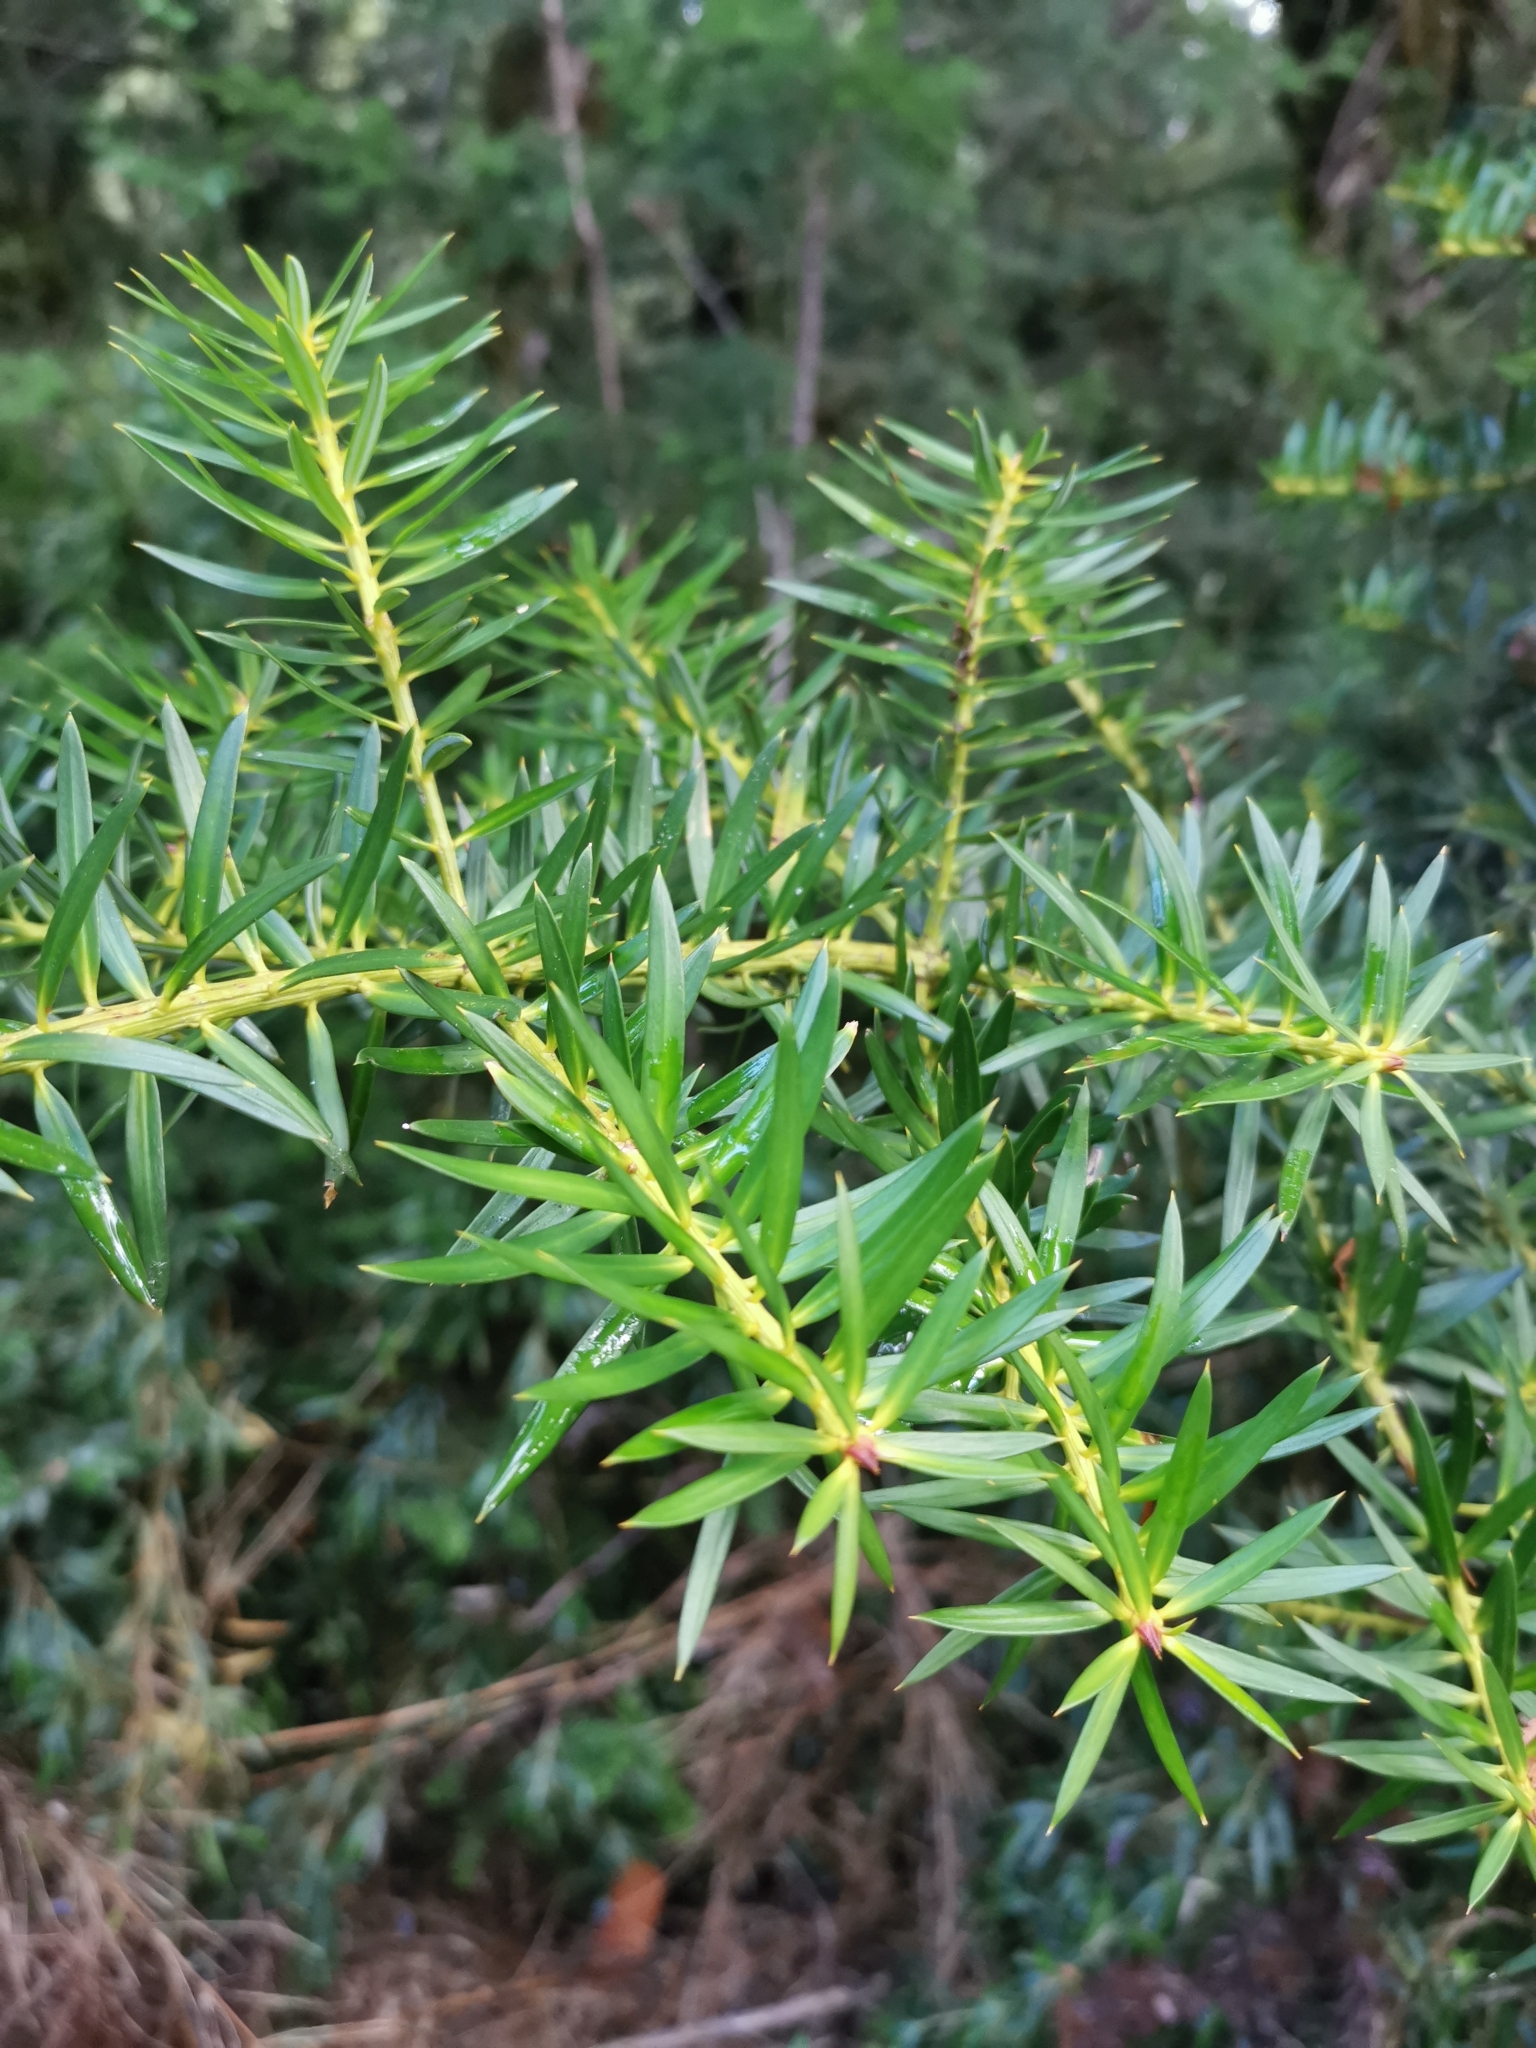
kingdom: Plantae
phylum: Tracheophyta
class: Pinopsida
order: Pinales
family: Podocarpaceae
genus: Podocarpus
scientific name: Podocarpus nubigenus
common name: Cloud podocarp
